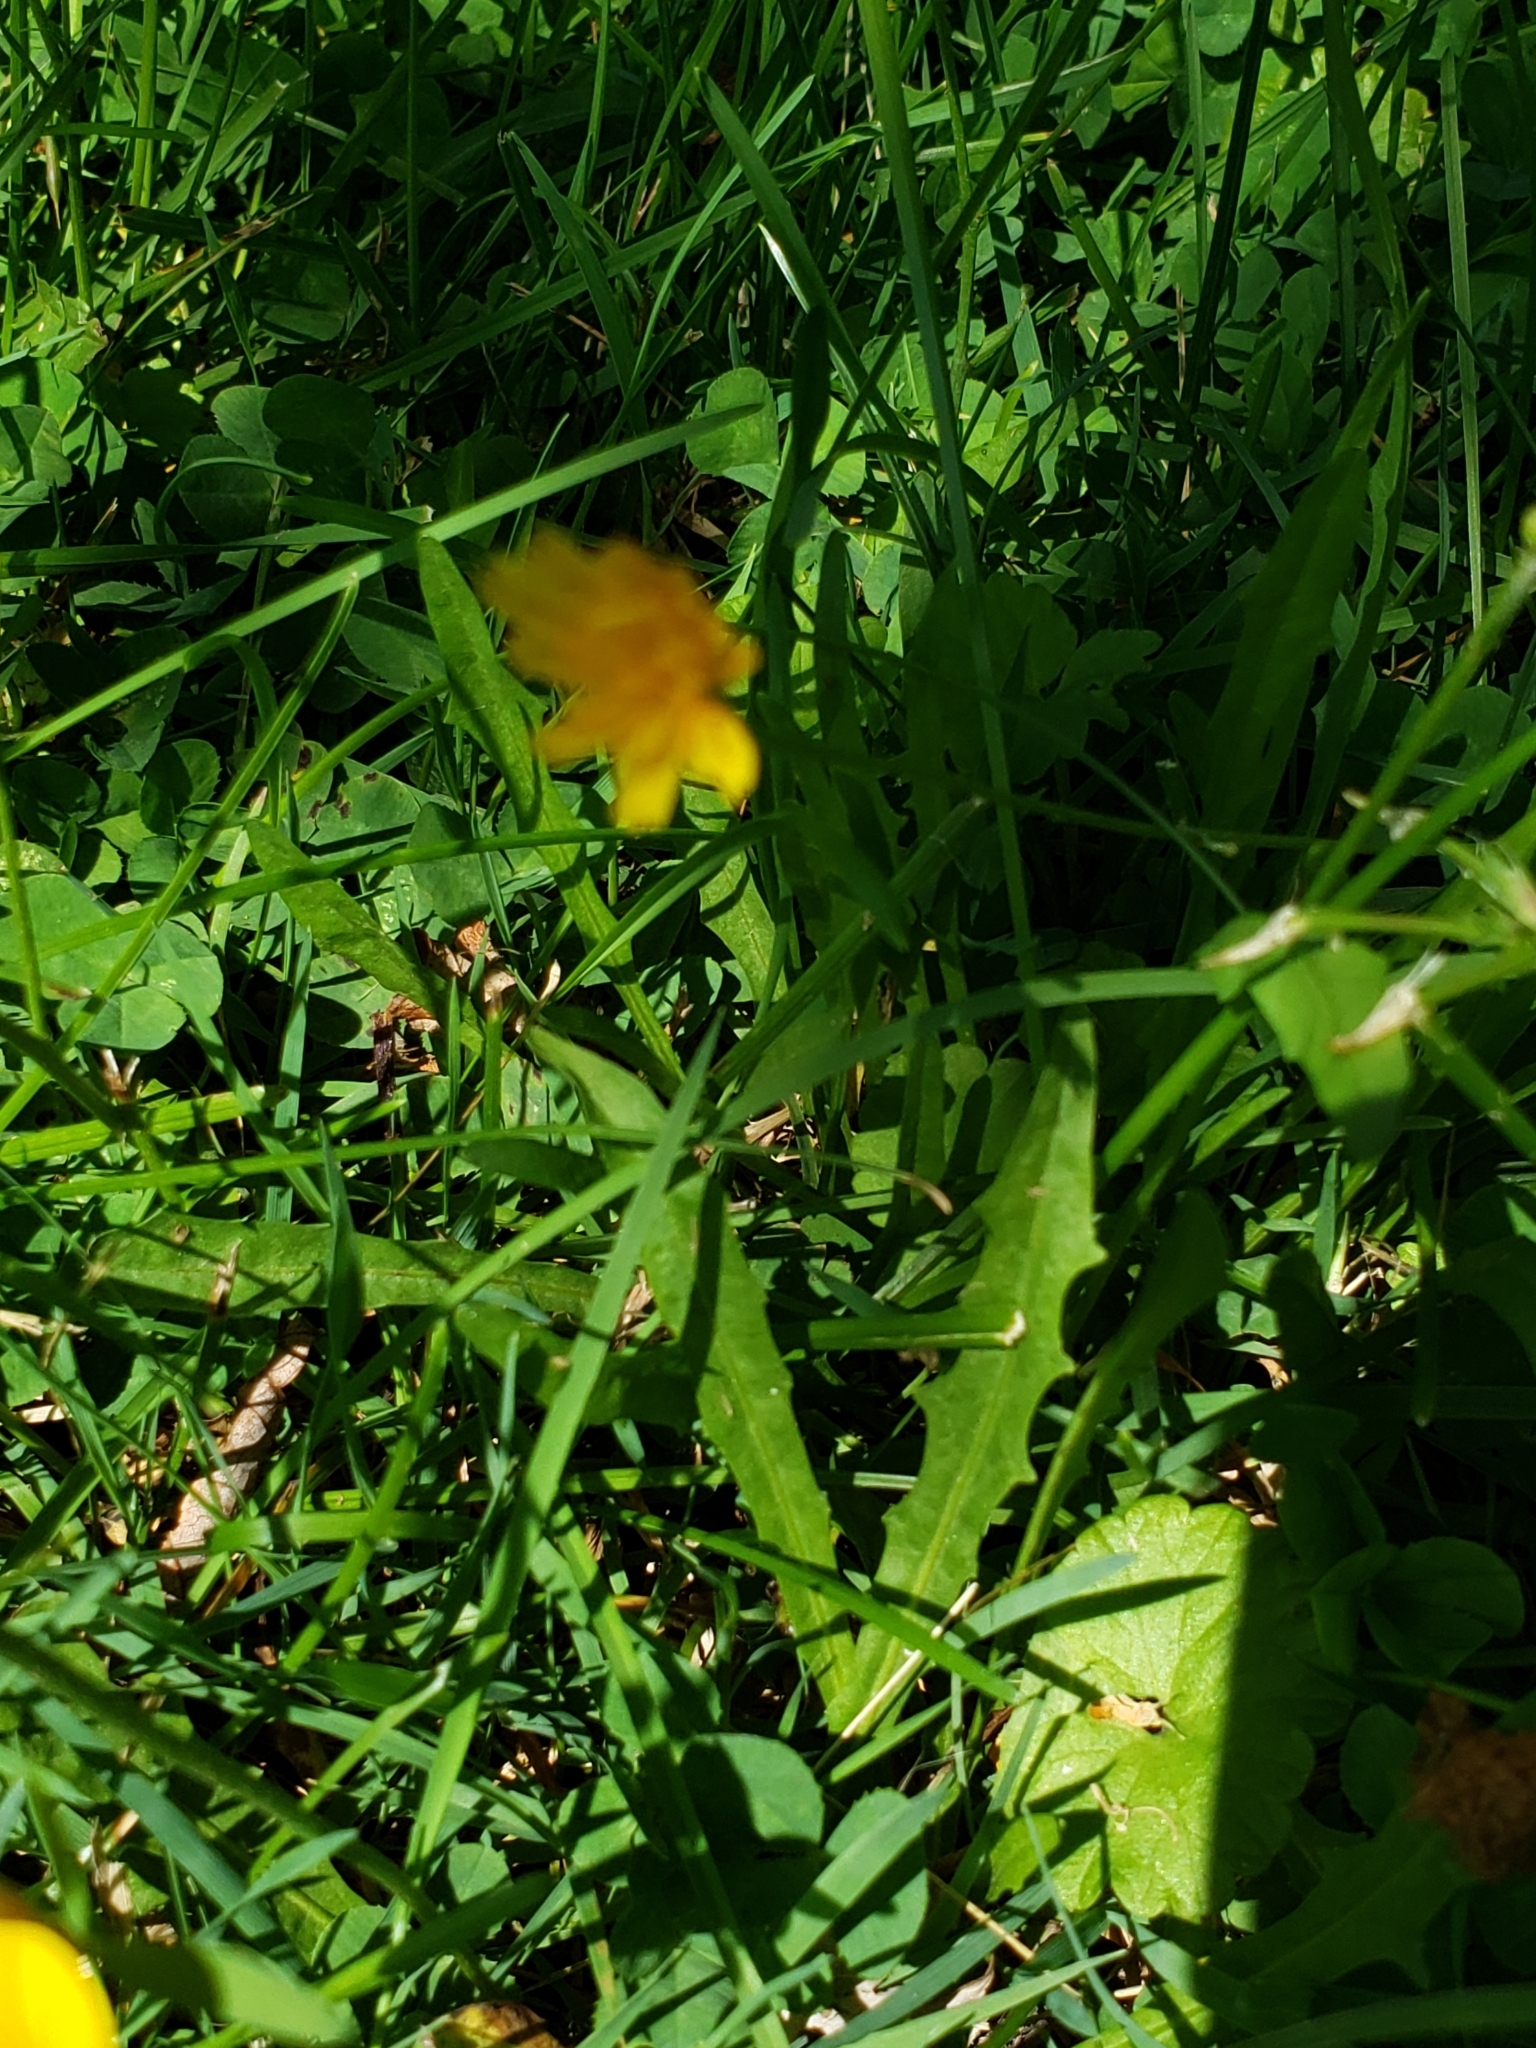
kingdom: Plantae
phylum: Tracheophyta
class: Magnoliopsida
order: Asterales
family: Asteraceae
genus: Scorzoneroides
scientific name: Scorzoneroides autumnalis
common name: Autumn hawkbit
